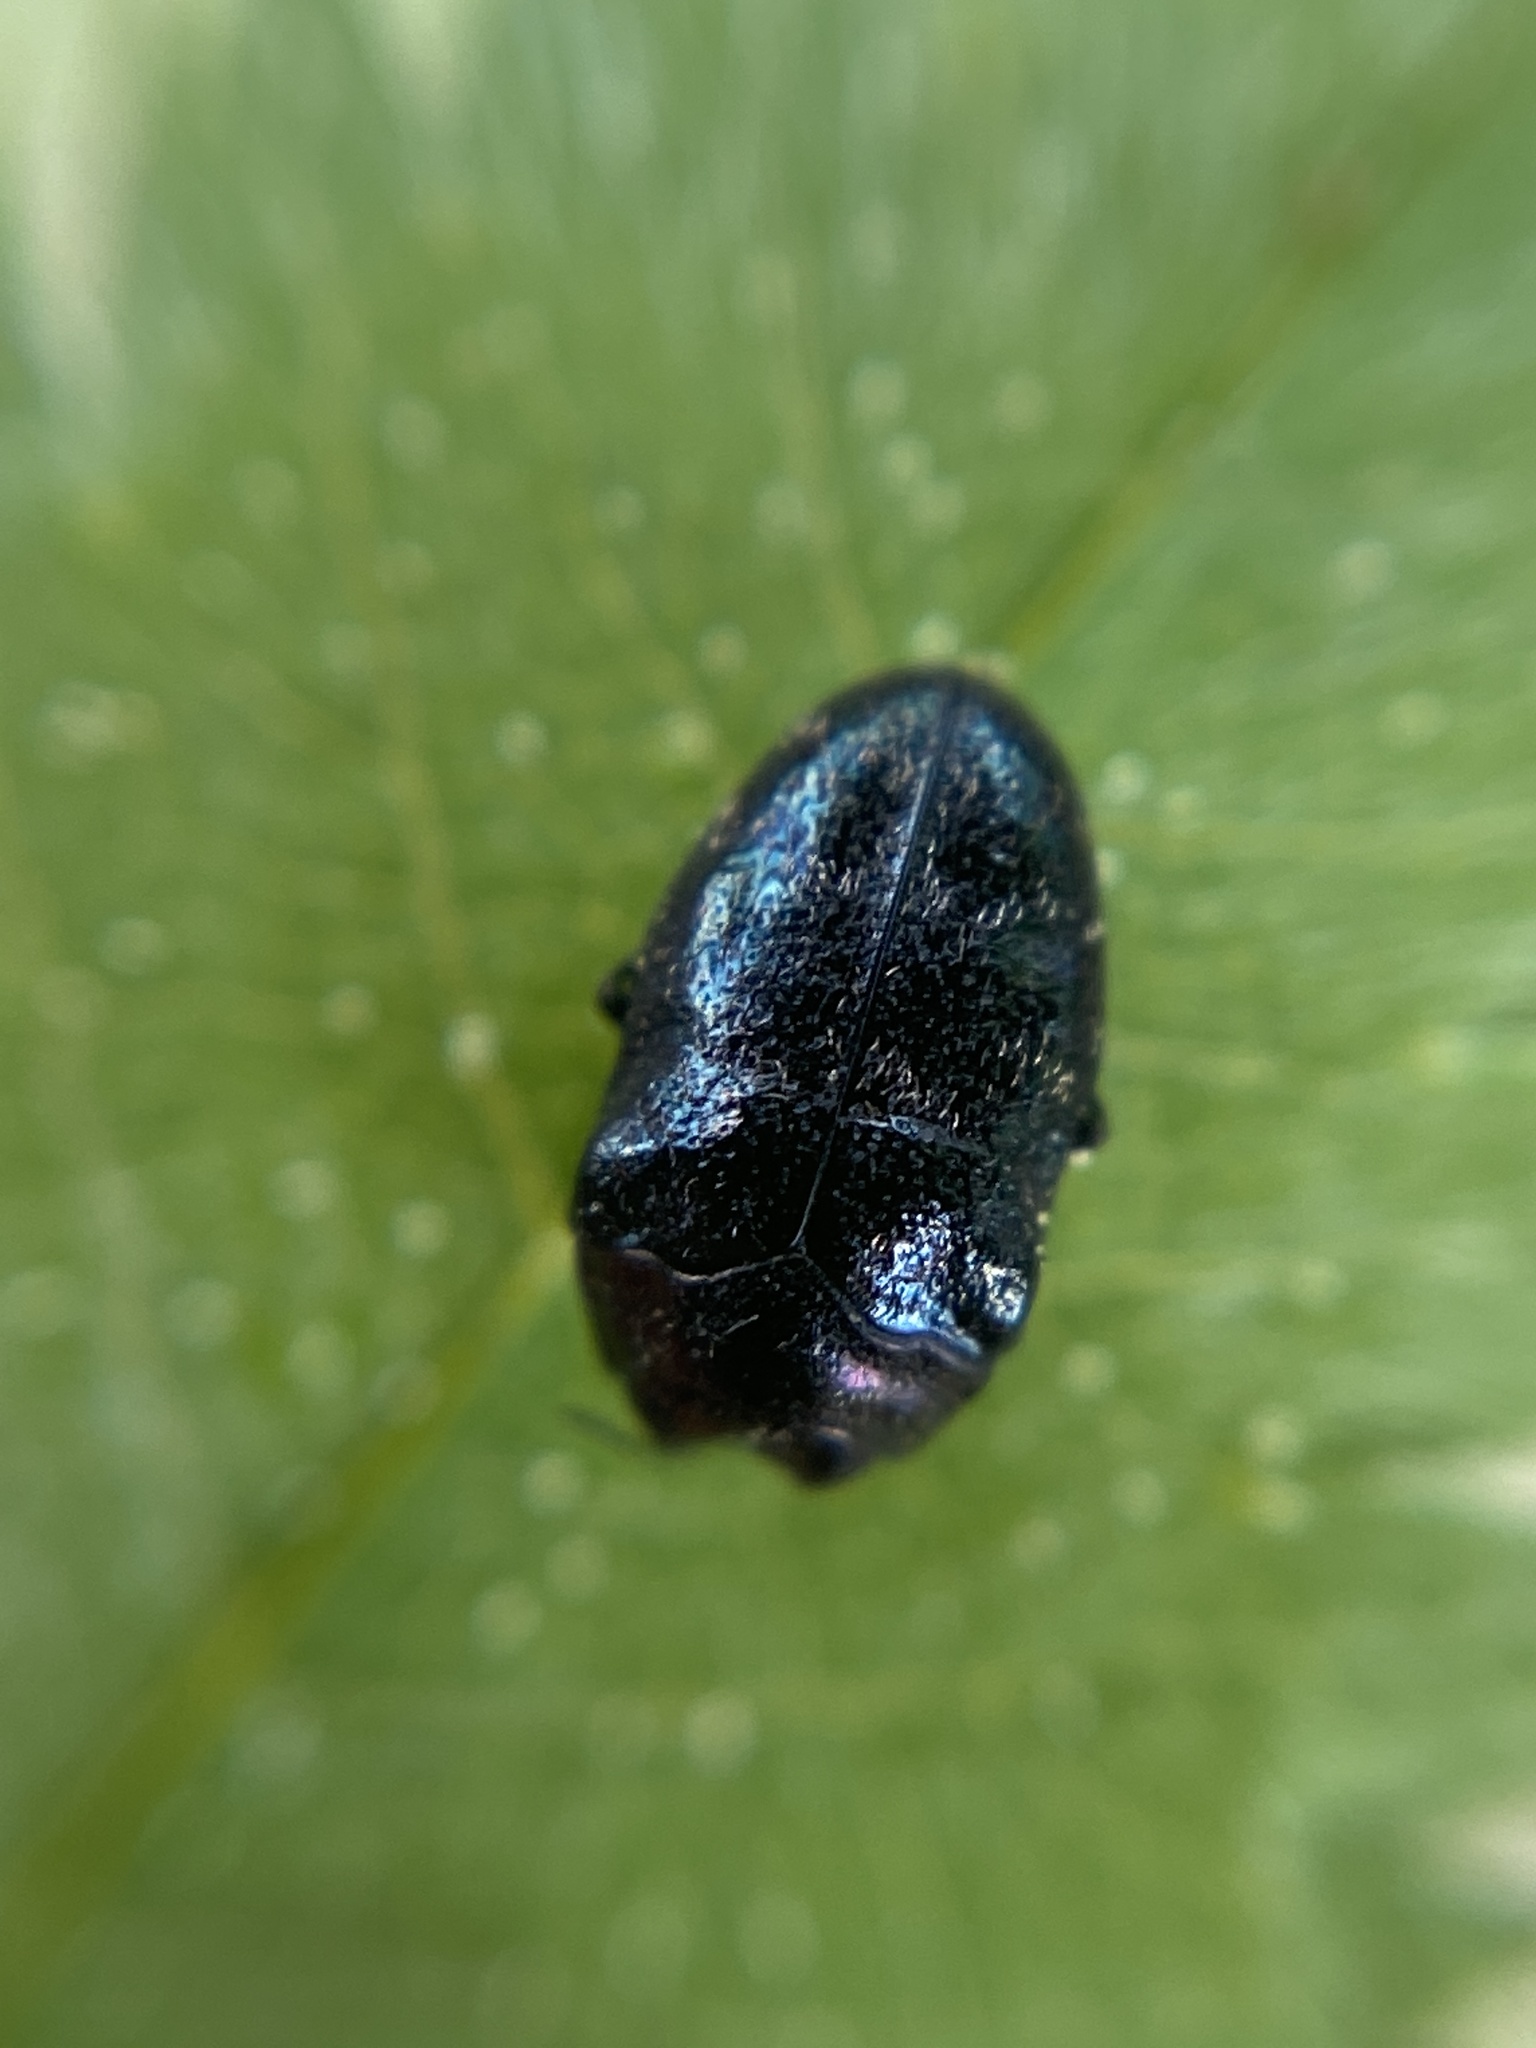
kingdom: Animalia
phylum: Arthropoda
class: Insecta
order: Coleoptera
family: Buprestidae
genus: Trachys
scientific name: Trachys minutus
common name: Metallic wood-boring beetle
